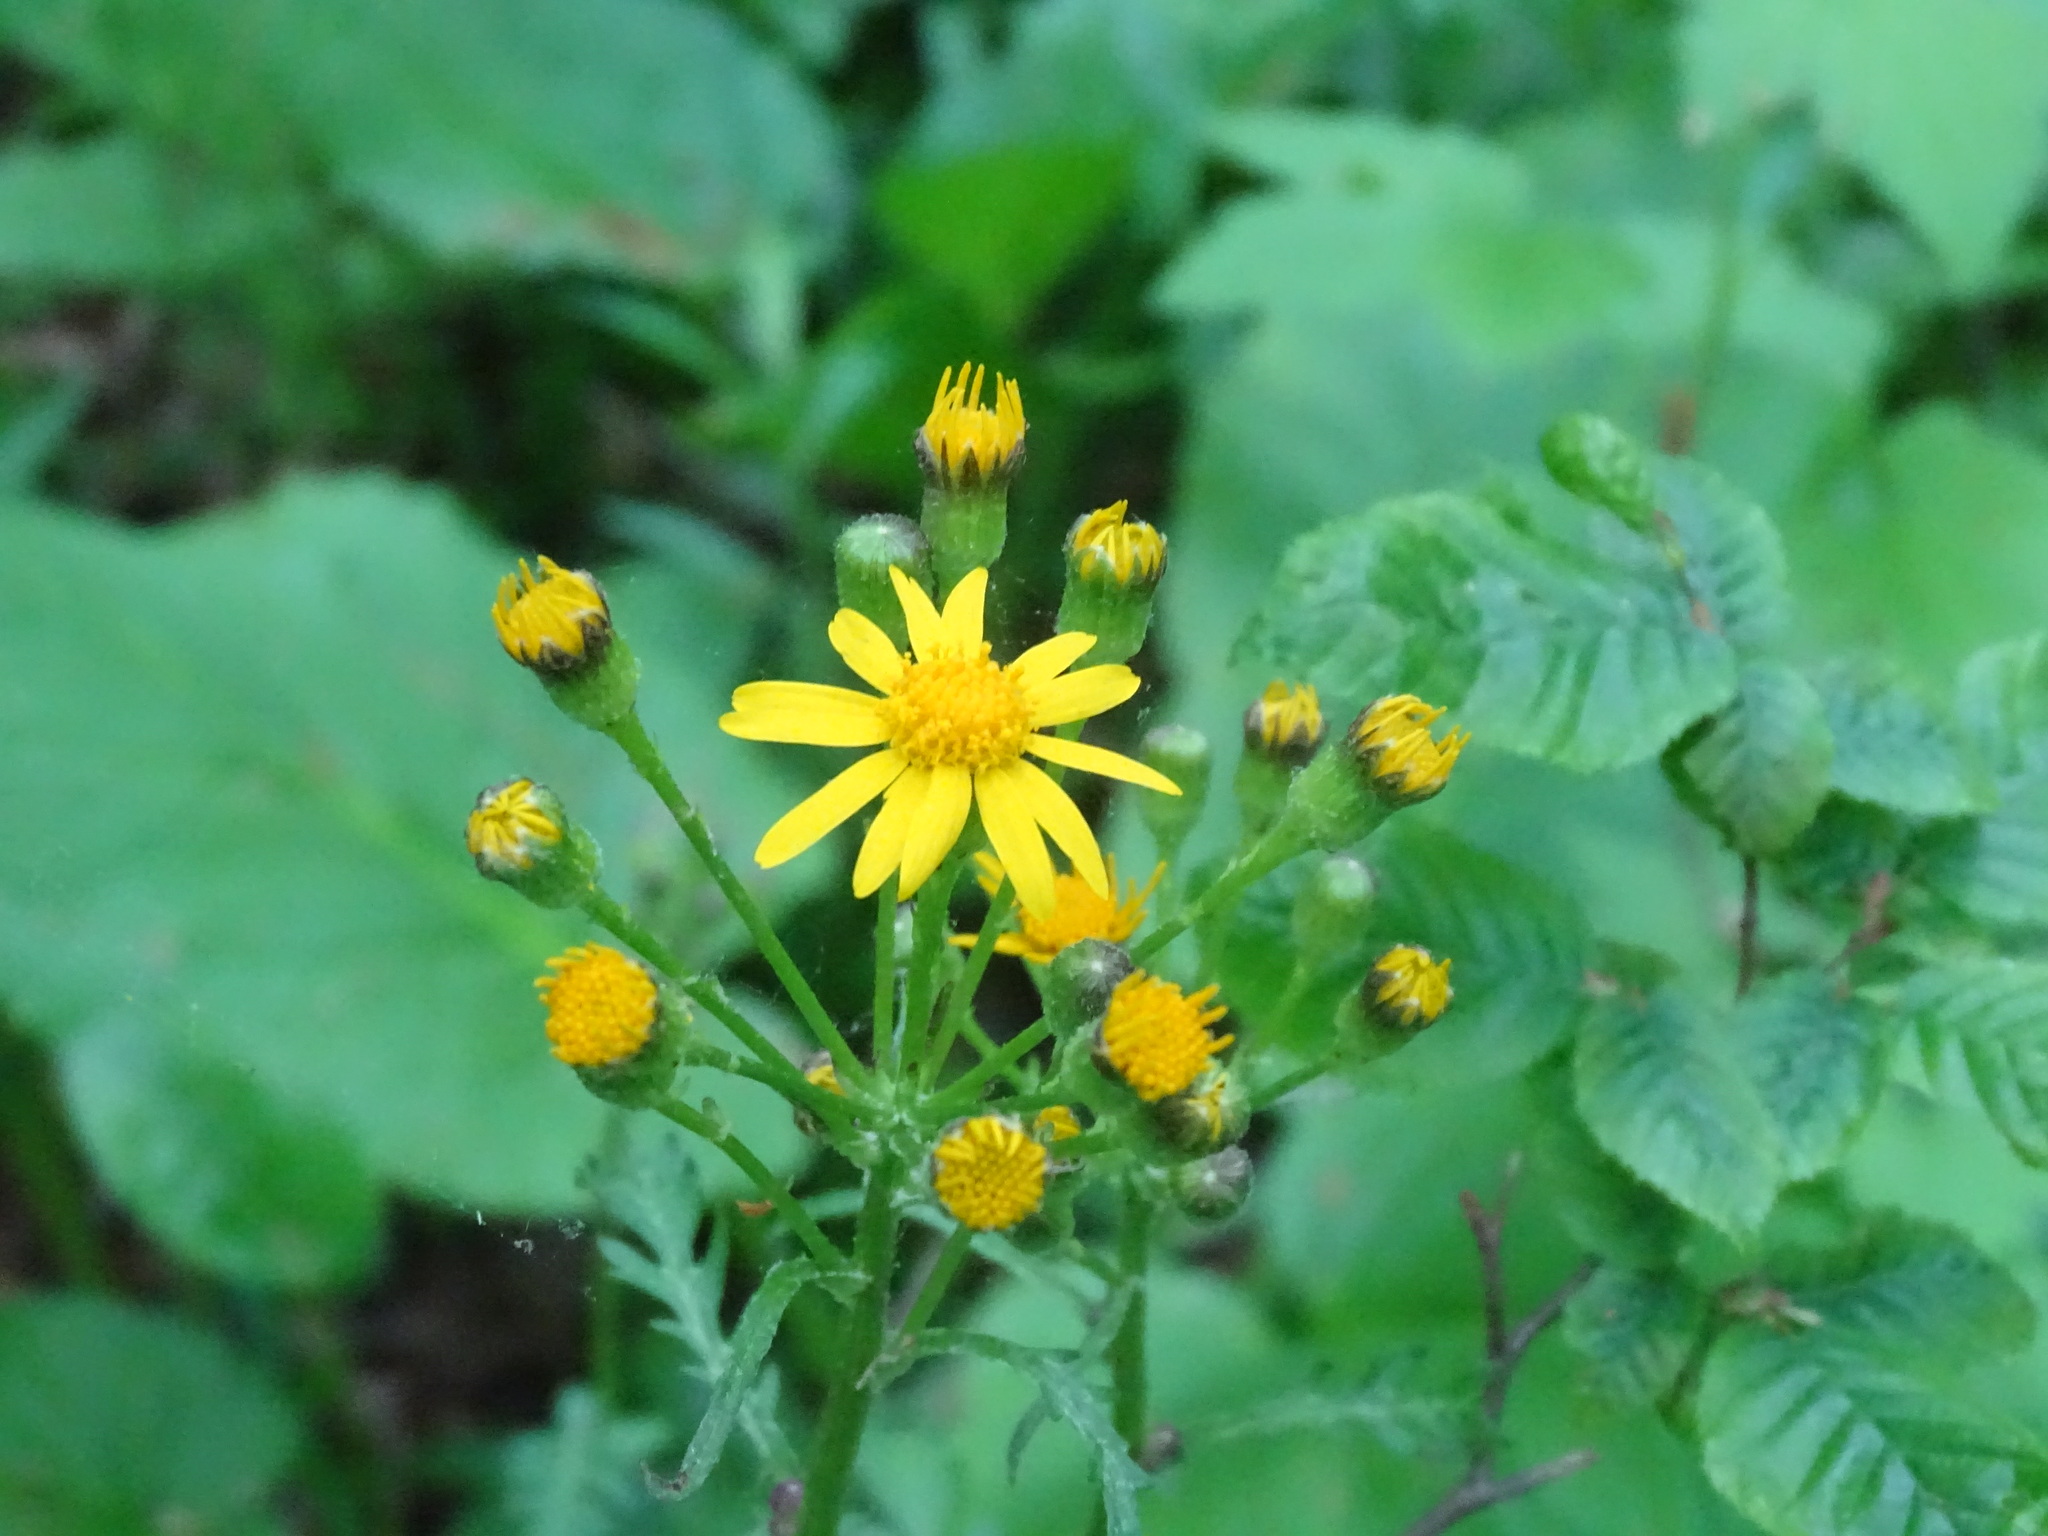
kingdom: Plantae
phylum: Tracheophyta
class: Magnoliopsida
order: Asterales
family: Asteraceae
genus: Packera
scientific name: Packera aurea
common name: Golden groundsel
